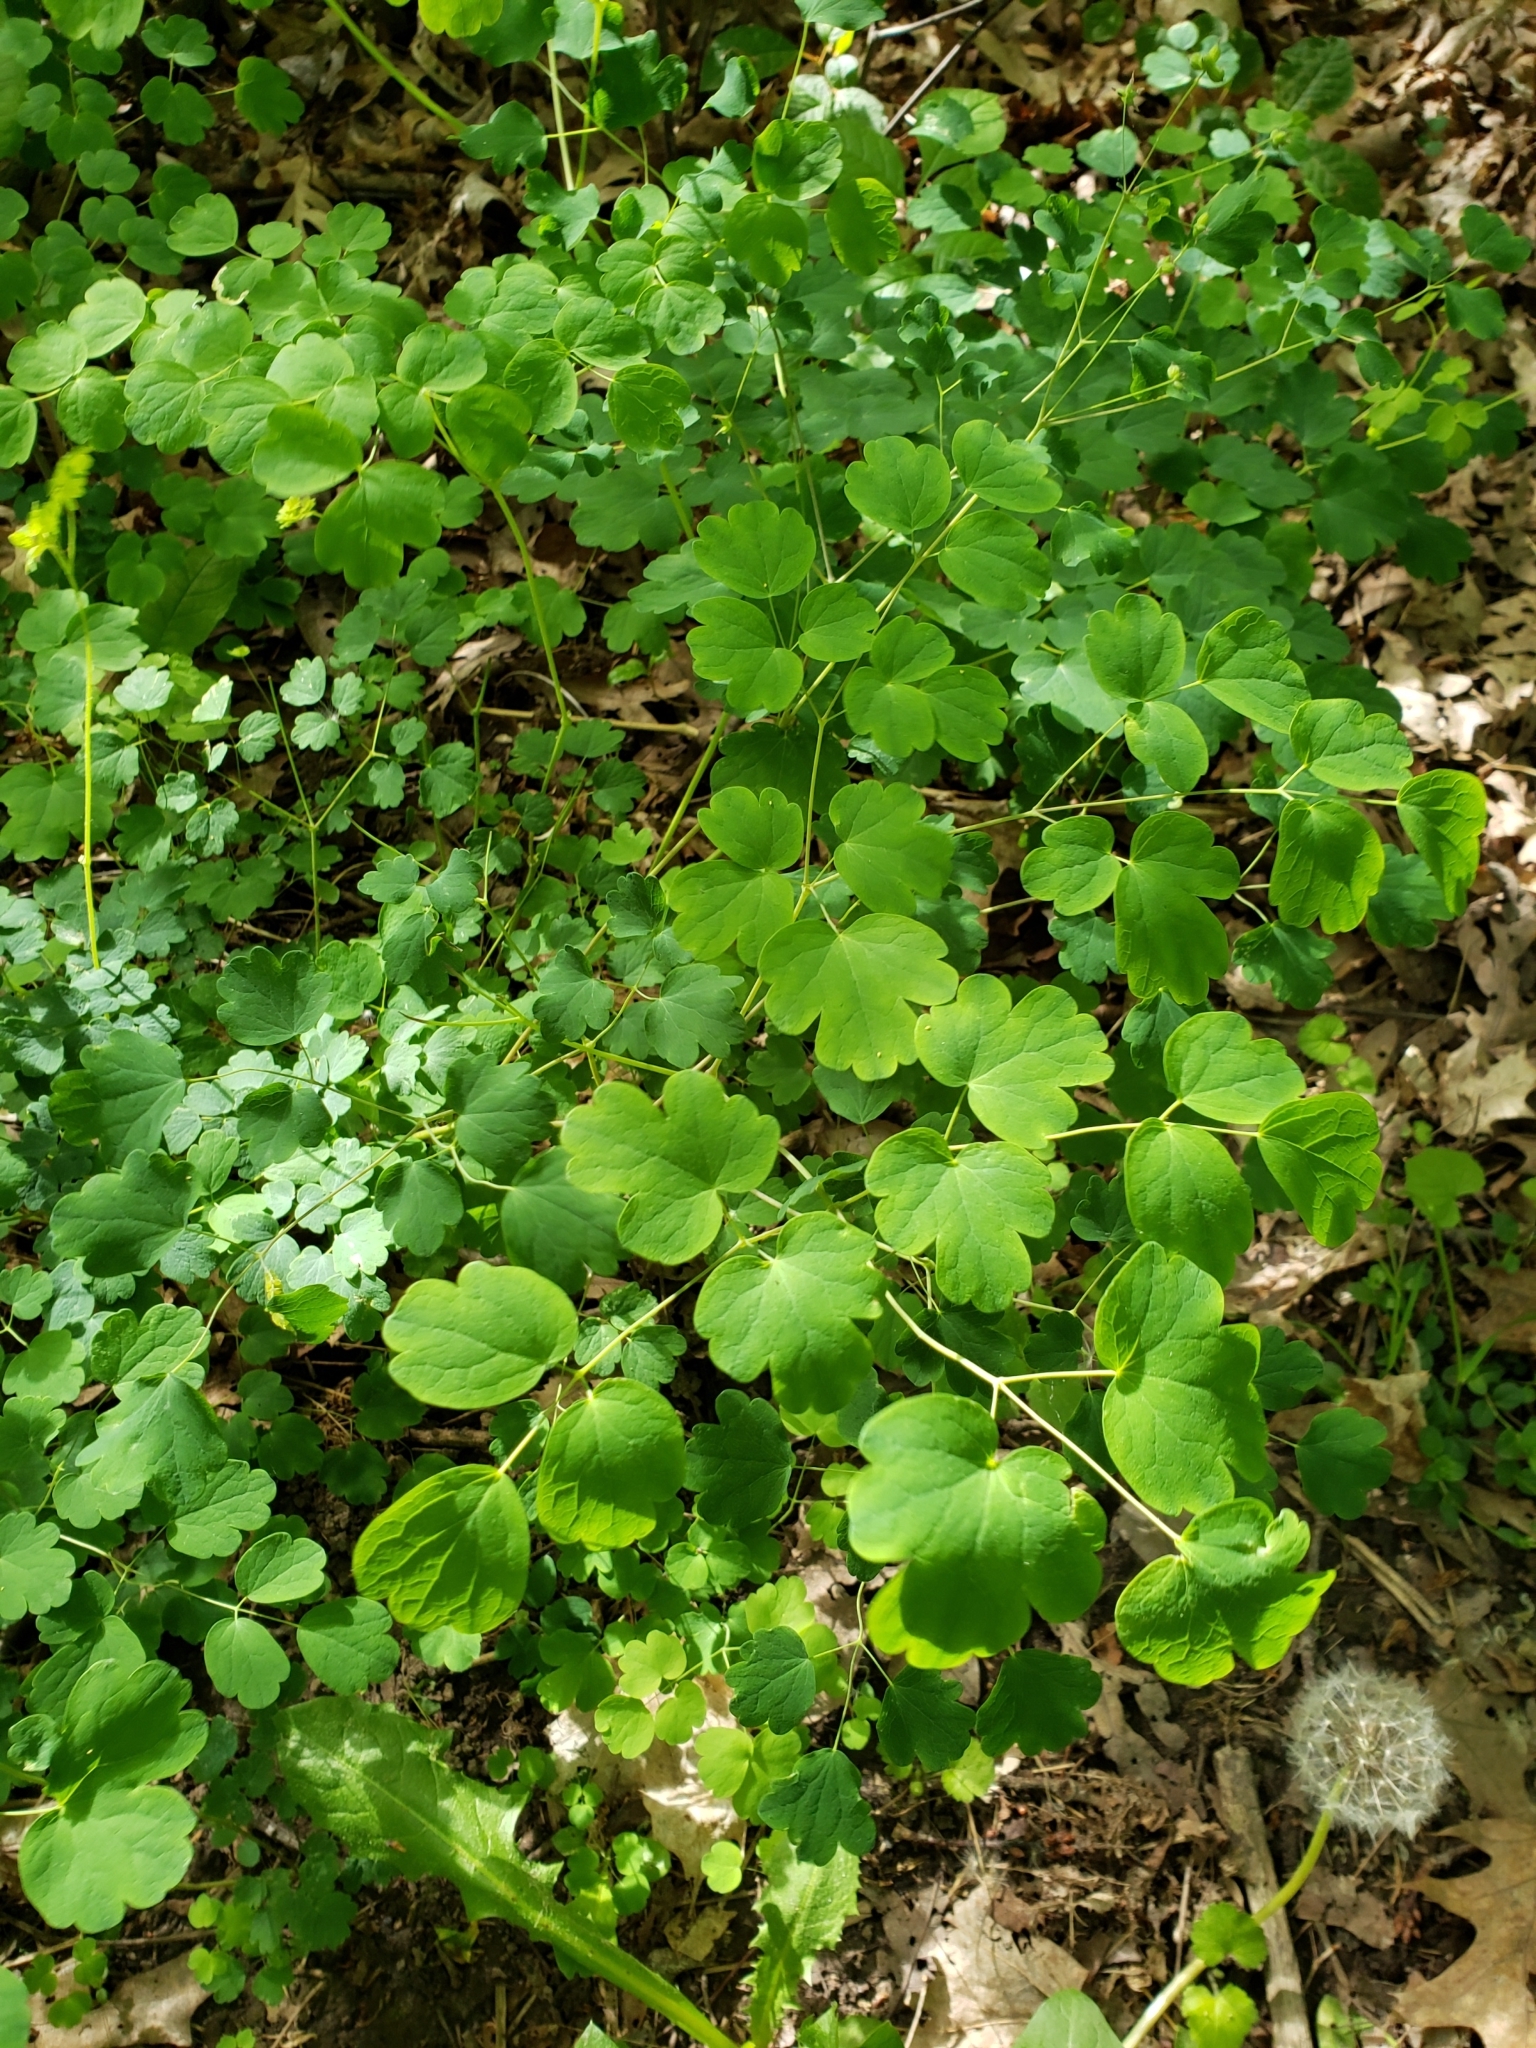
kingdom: Plantae
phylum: Tracheophyta
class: Magnoliopsida
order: Ranunculales
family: Ranunculaceae
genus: Thalictrum
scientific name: Thalictrum dioicum
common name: Early meadow-rue
